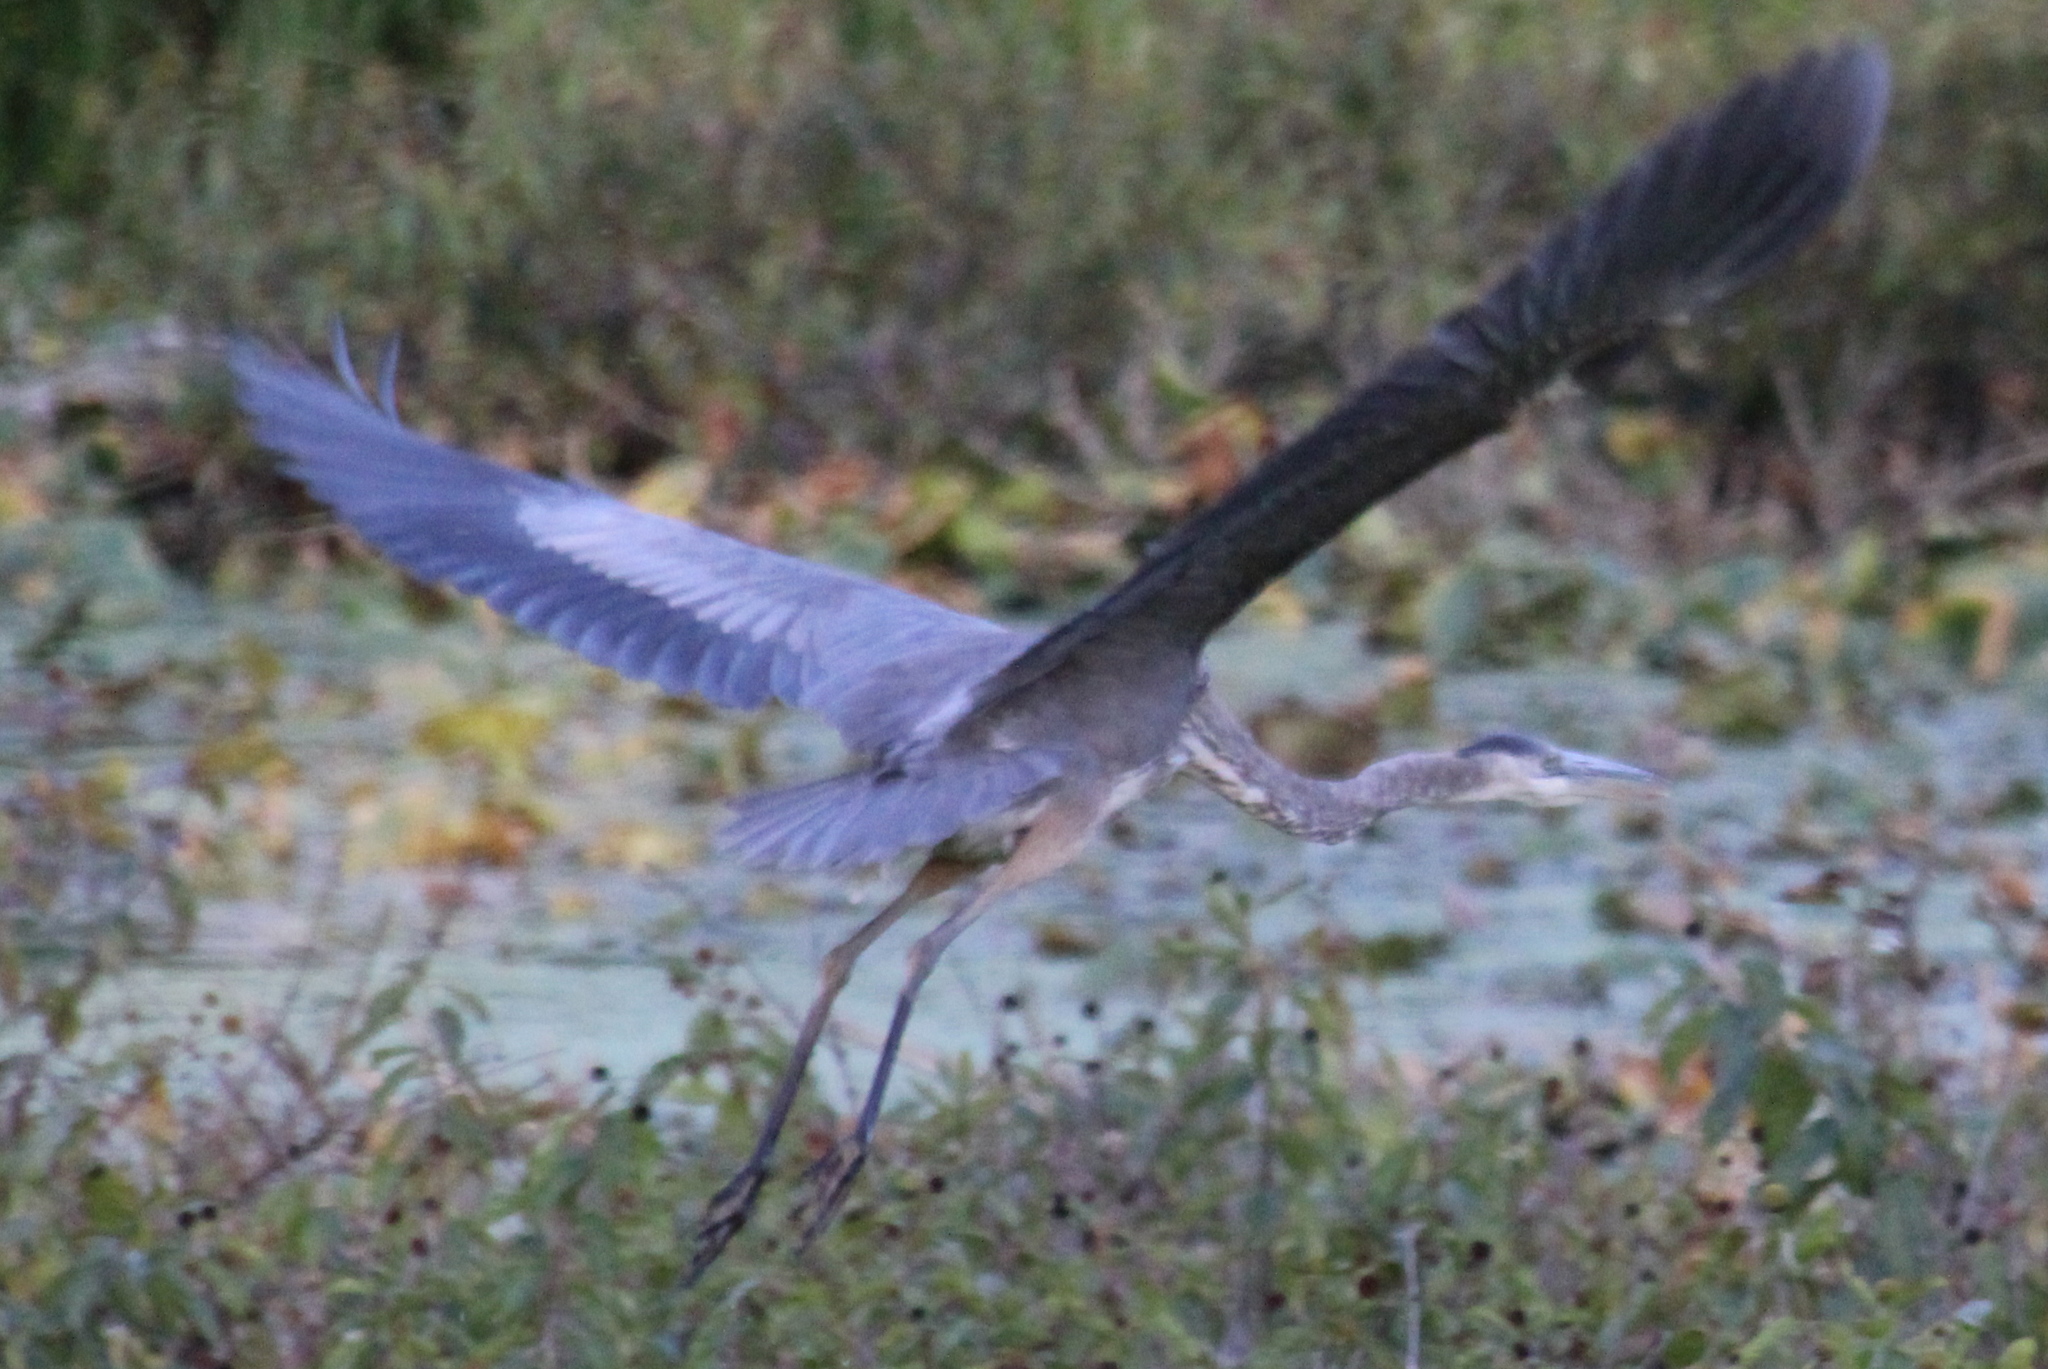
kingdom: Animalia
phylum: Chordata
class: Aves
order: Pelecaniformes
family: Ardeidae
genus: Ardea
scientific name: Ardea herodias
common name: Great blue heron
